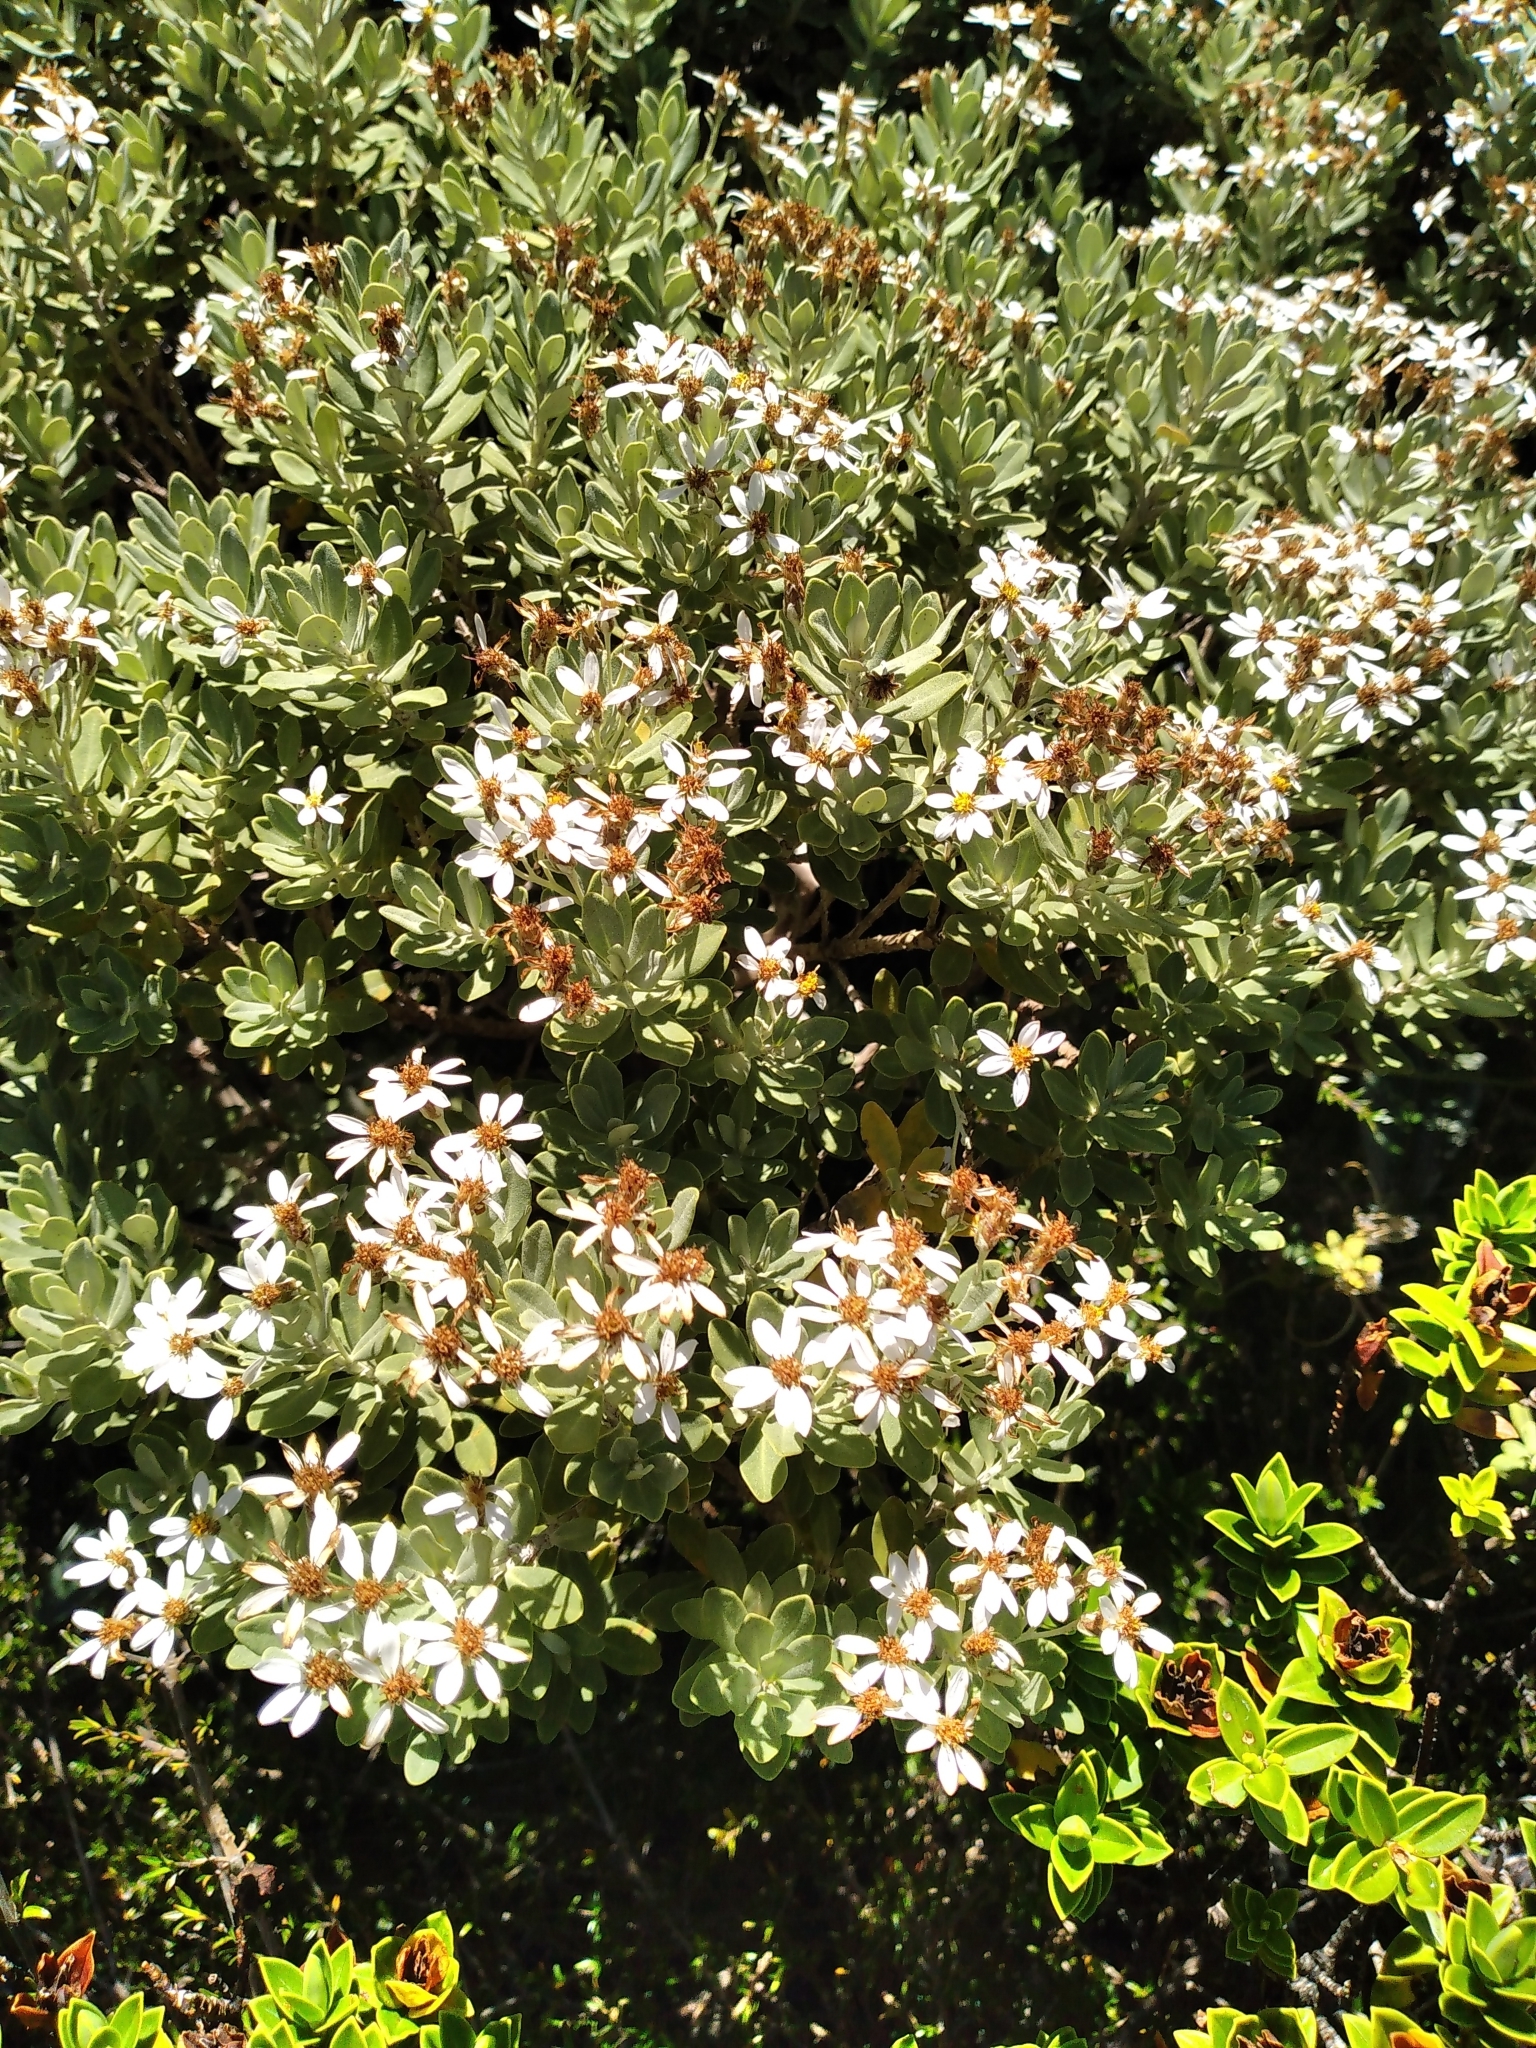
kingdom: Plantae
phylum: Tracheophyta
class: Magnoliopsida
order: Asterales
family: Asteraceae
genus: Olearia
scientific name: Olearia moschata
